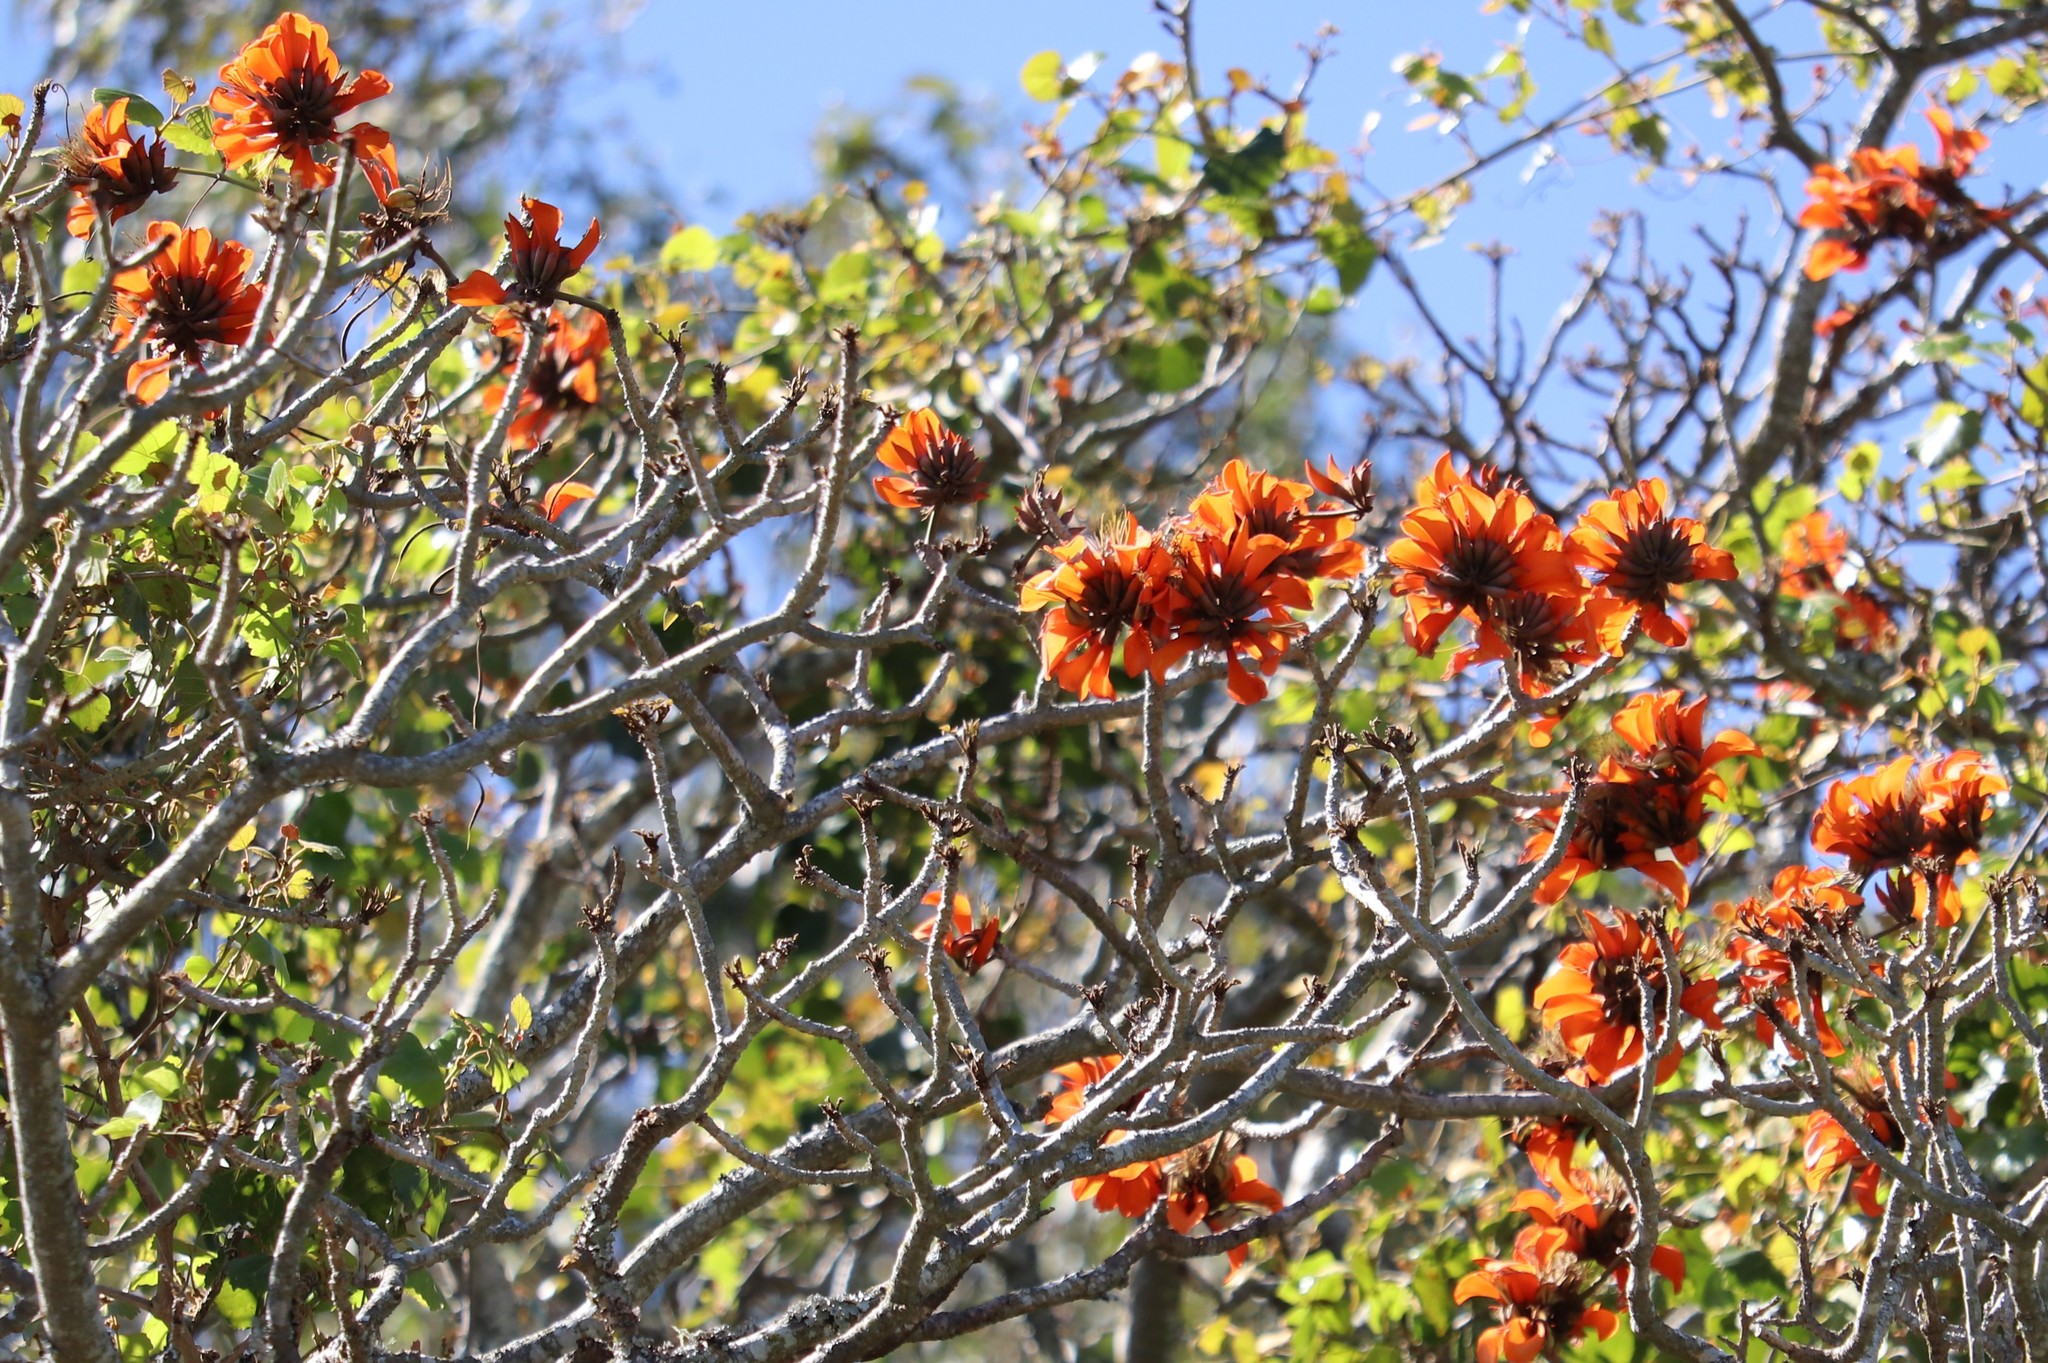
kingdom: Plantae
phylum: Tracheophyta
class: Magnoliopsida
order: Fabales
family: Fabaceae
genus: Erythrina
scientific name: Erythrina caffra
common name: Coast coral tree
